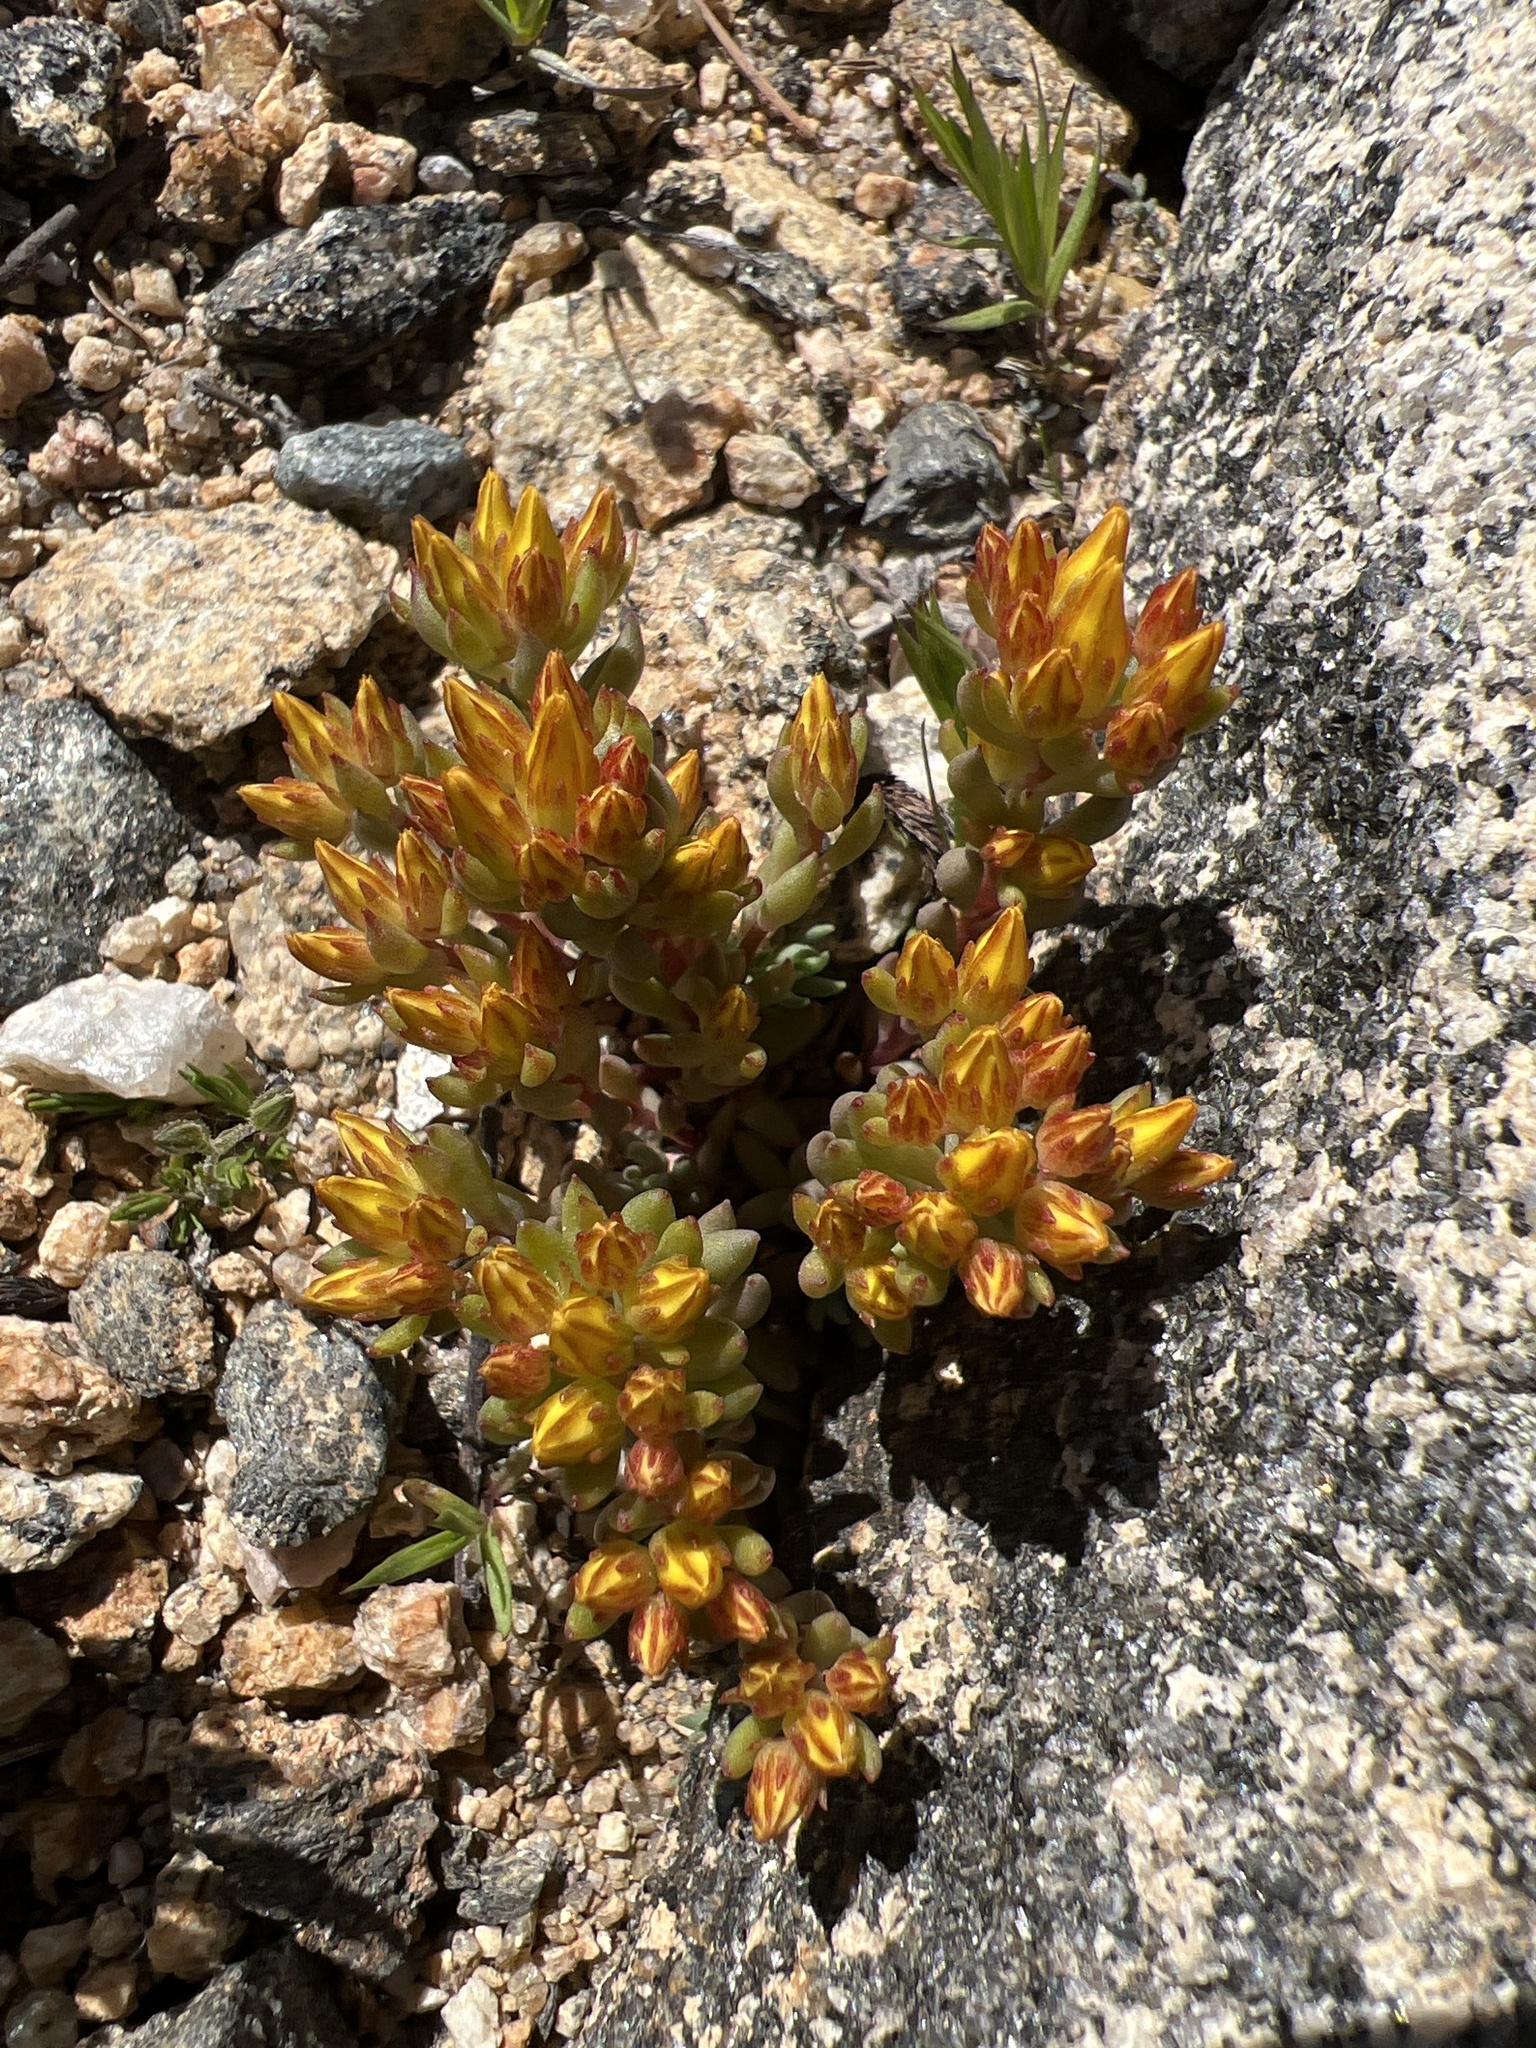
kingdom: Plantae
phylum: Tracheophyta
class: Magnoliopsida
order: Saxifragales
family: Crassulaceae
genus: Sedum
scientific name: Sedum lanceolatum
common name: Common stonecrop
